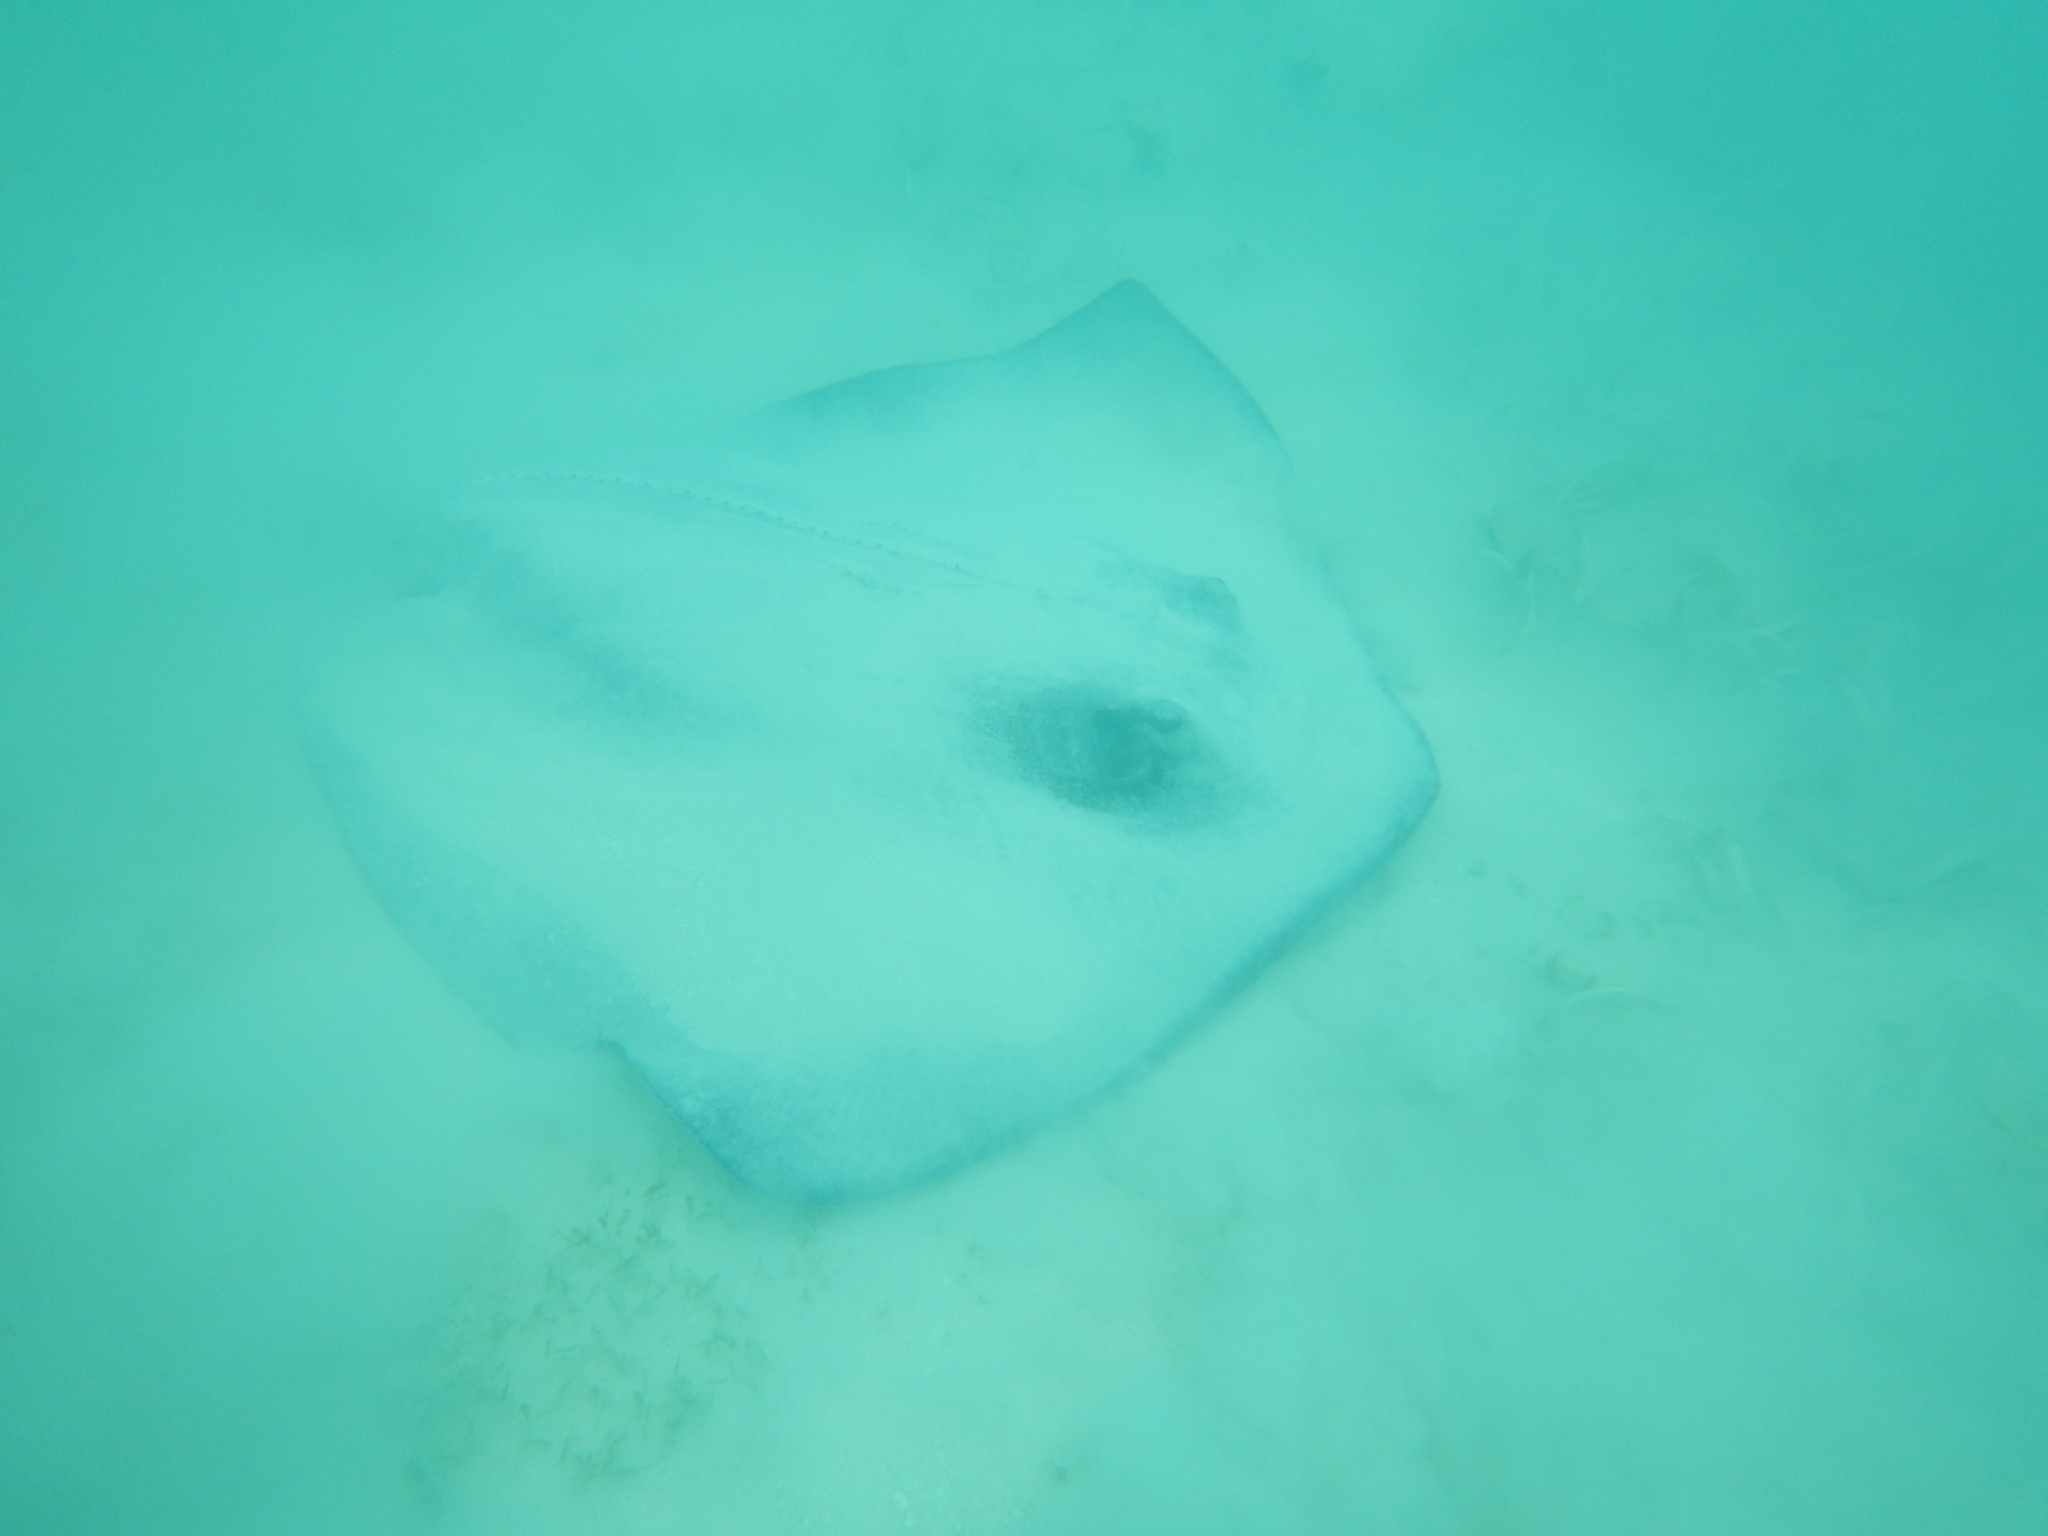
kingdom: Animalia
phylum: Chordata
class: Elasmobranchii
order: Myliobatiformes
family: Dasyatidae
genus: Hypanus
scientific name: Hypanus americanus
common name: Southern stingray
